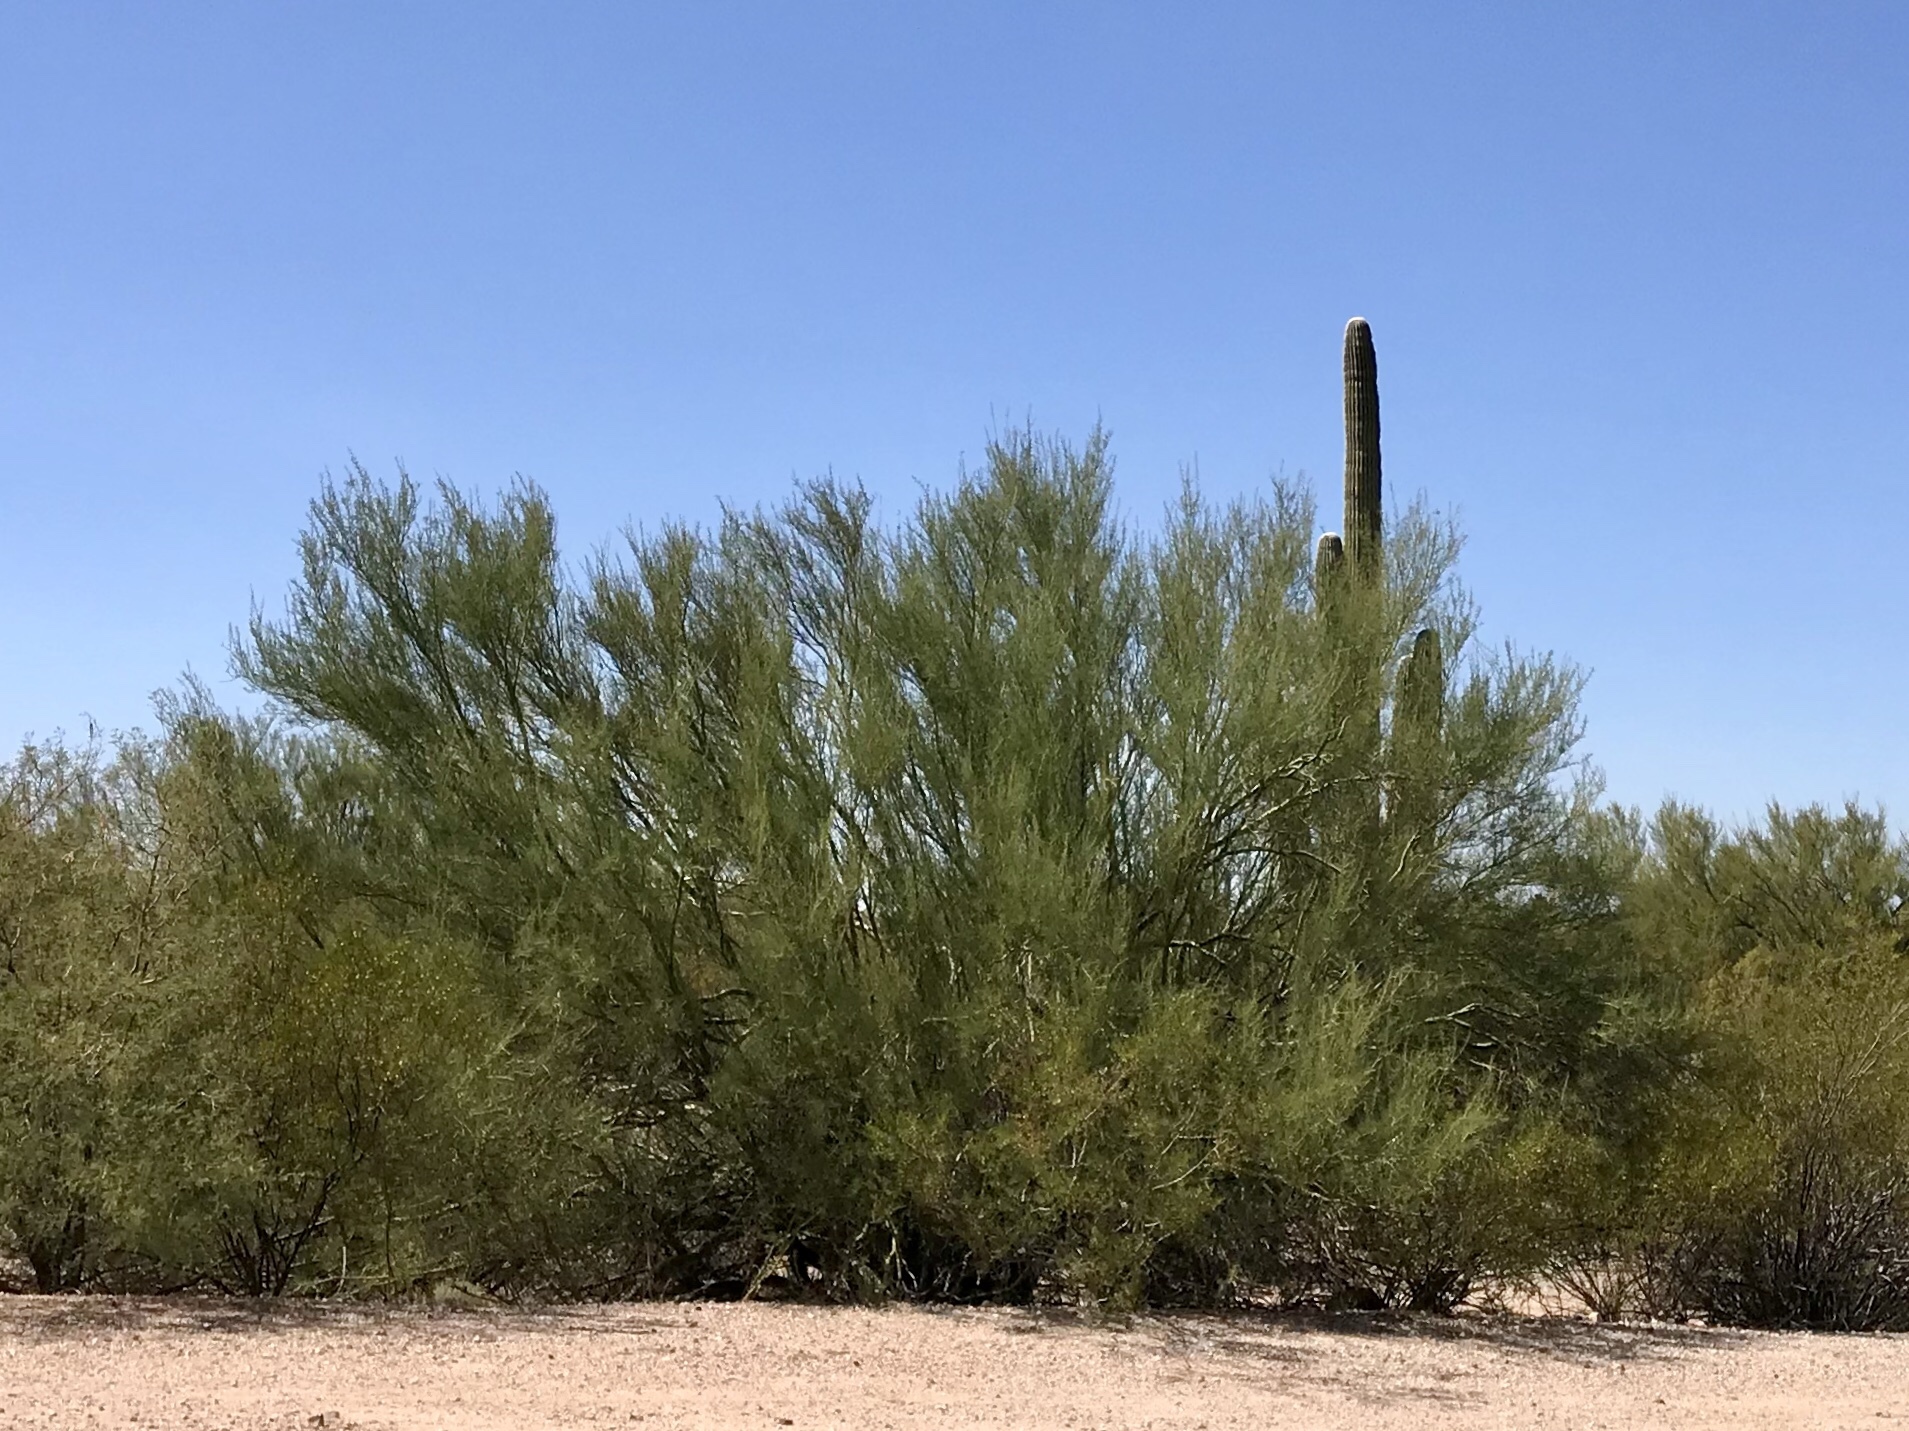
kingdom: Plantae
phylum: Tracheophyta
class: Magnoliopsida
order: Fabales
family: Fabaceae
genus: Parkinsonia
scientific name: Parkinsonia microphylla
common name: Yellow paloverde
